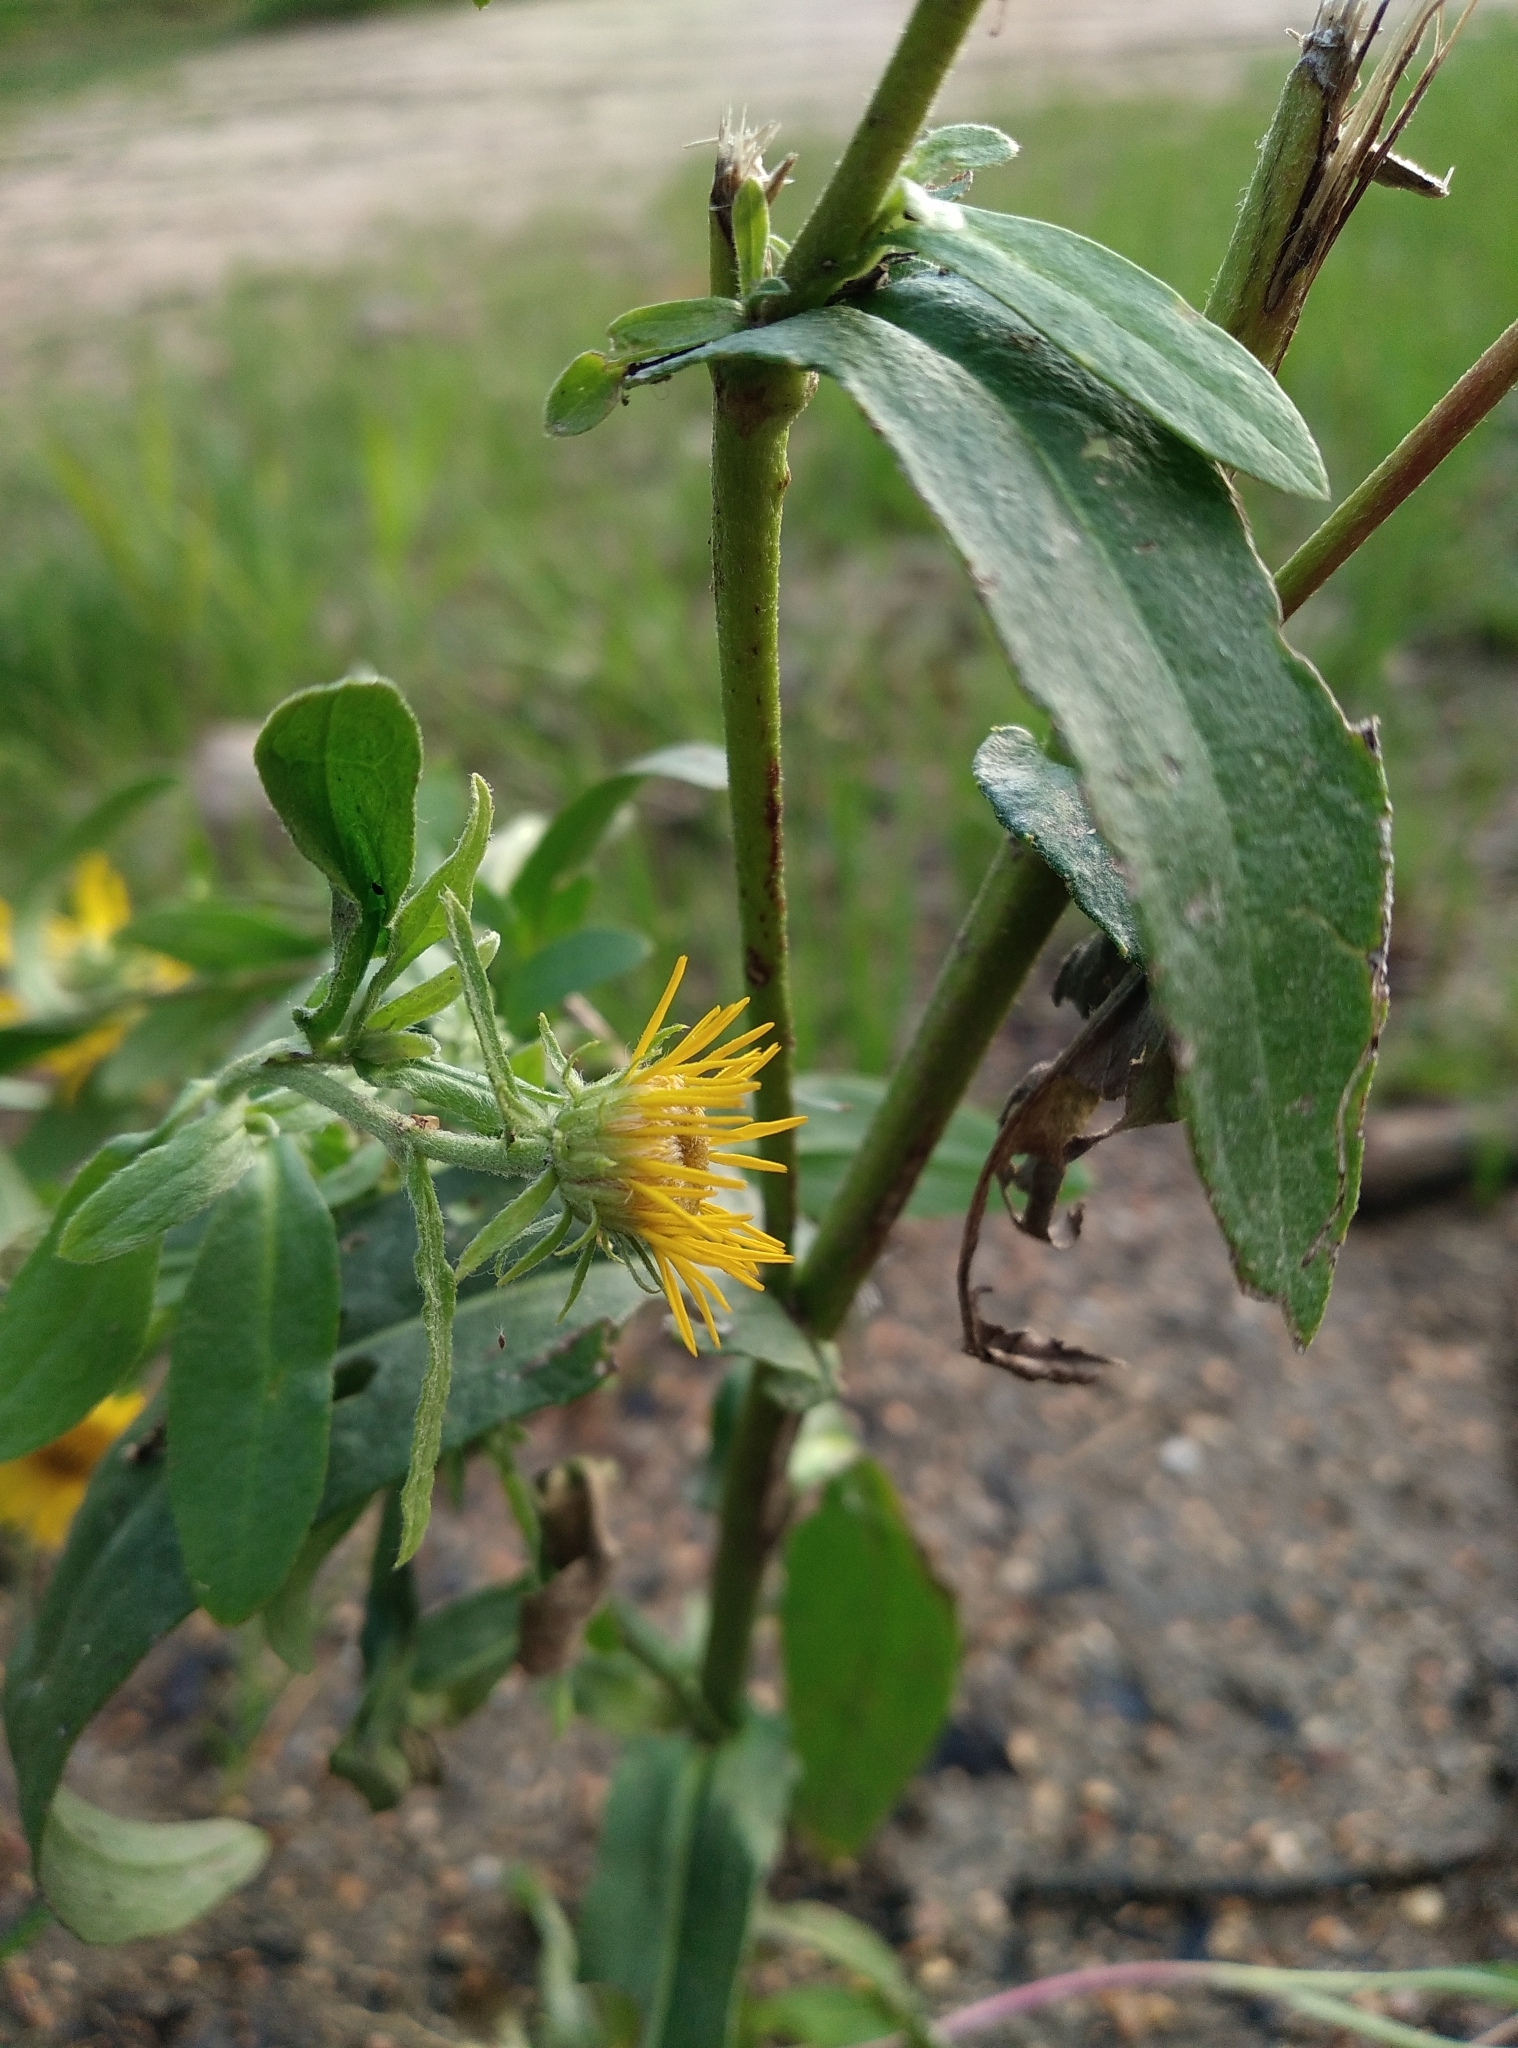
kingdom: Plantae
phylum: Tracheophyta
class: Magnoliopsida
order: Asterales
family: Asteraceae
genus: Pentanema
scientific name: Pentanema britannicum
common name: British elecampane
